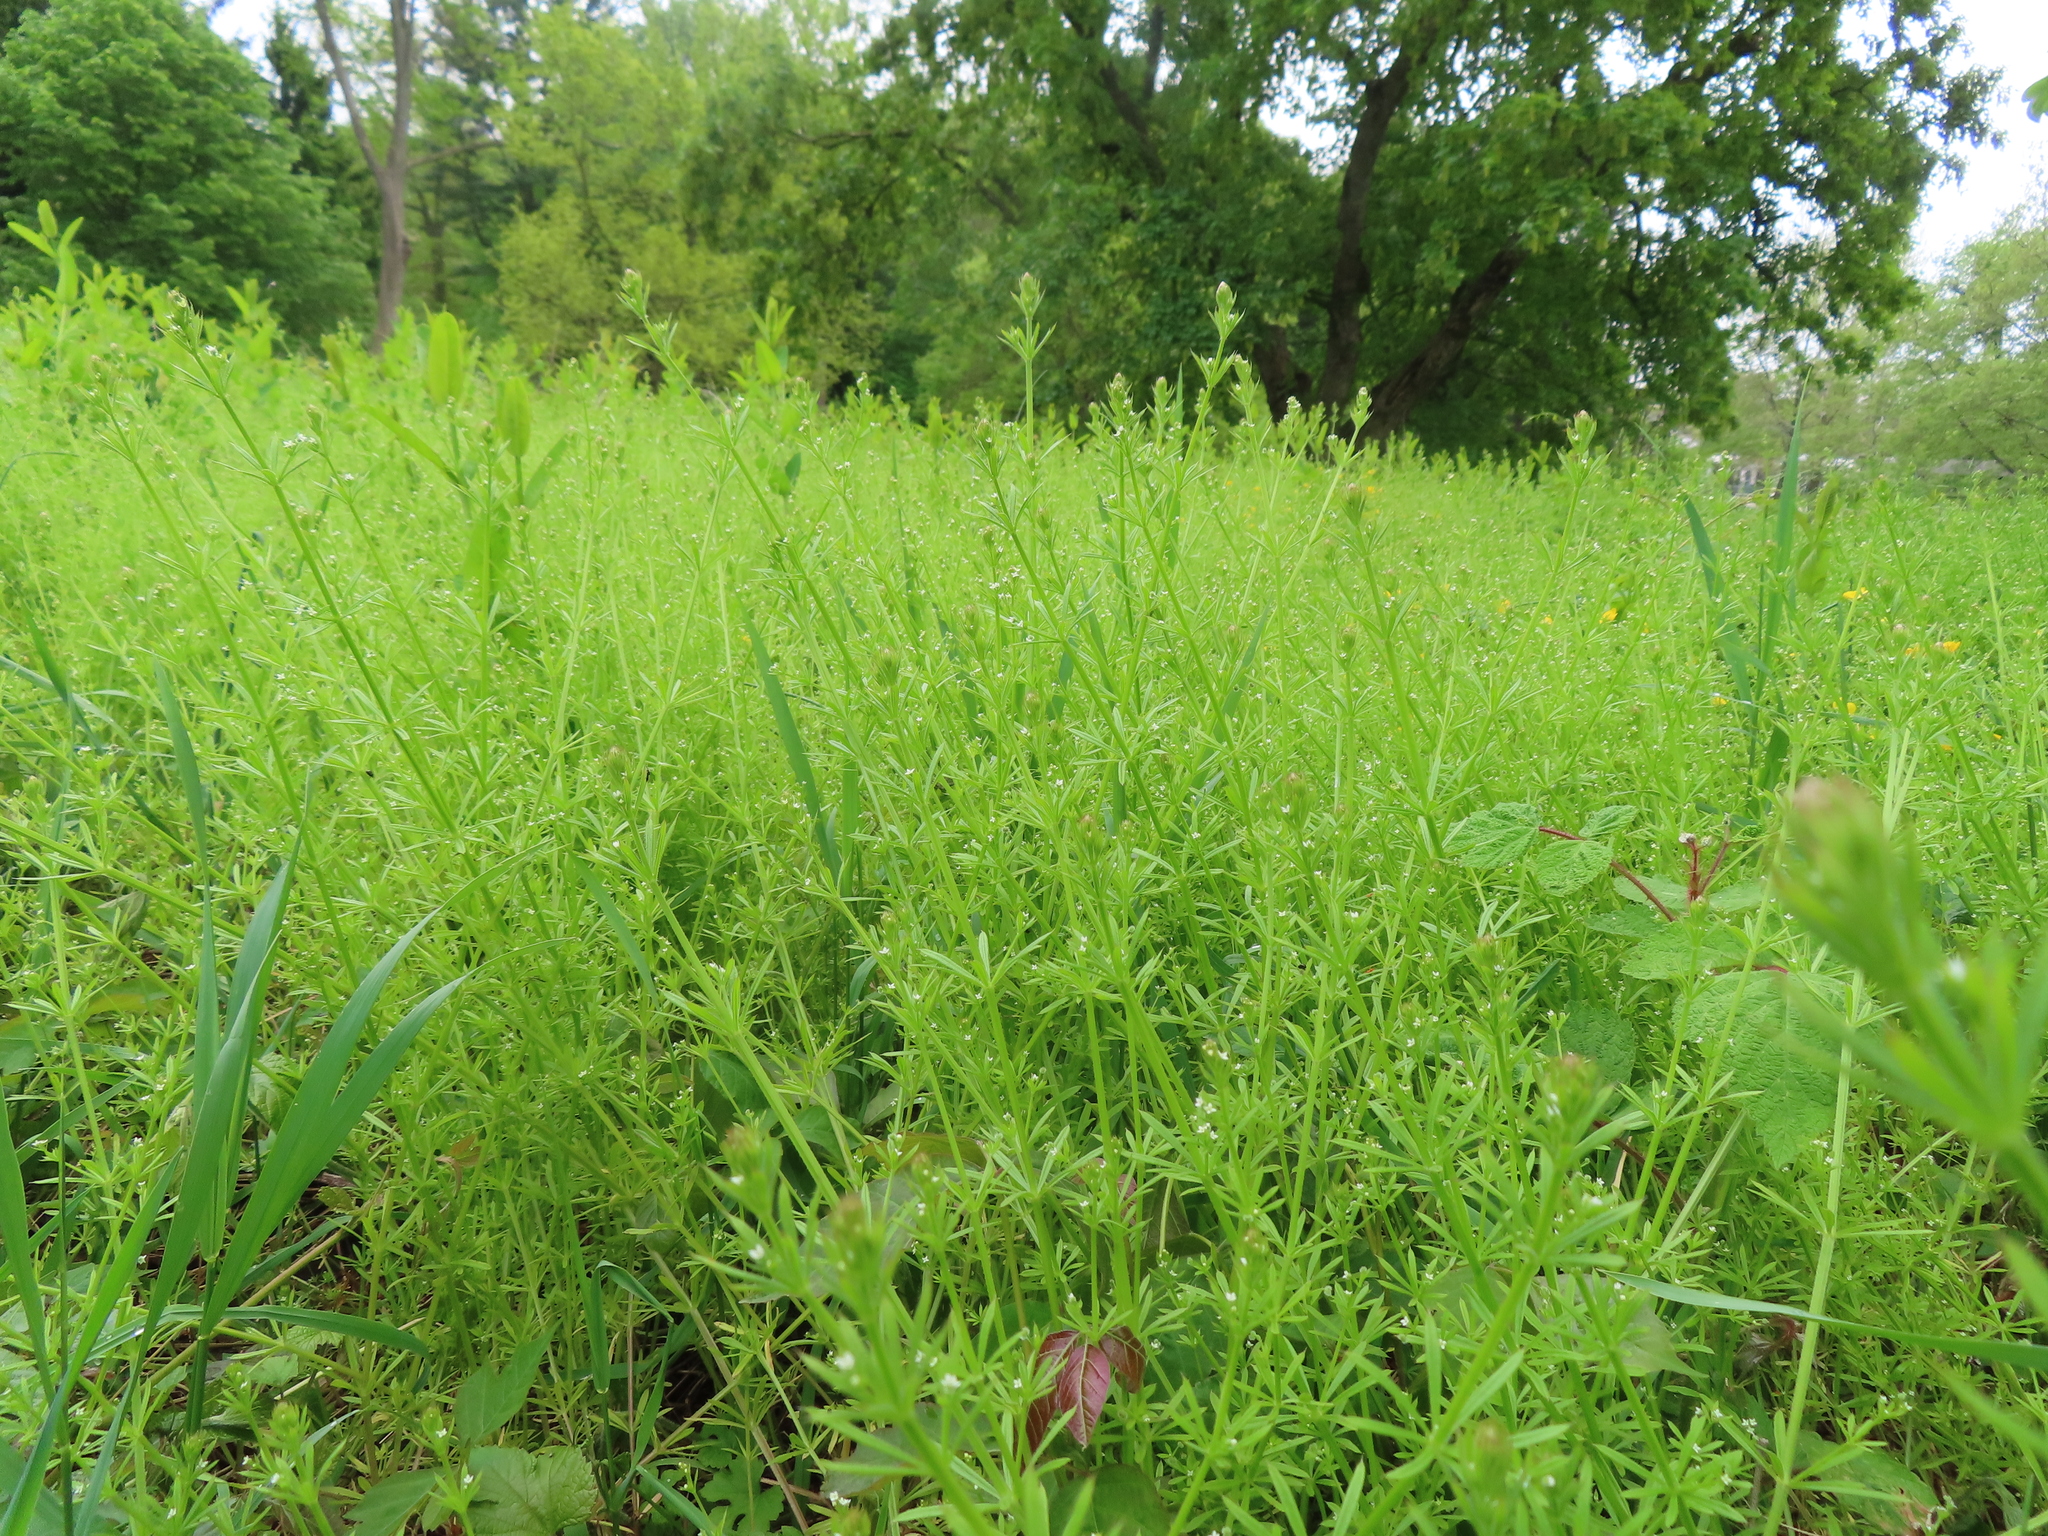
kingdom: Plantae
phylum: Tracheophyta
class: Magnoliopsida
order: Gentianales
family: Rubiaceae
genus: Galium
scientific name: Galium aparine
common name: Cleavers
